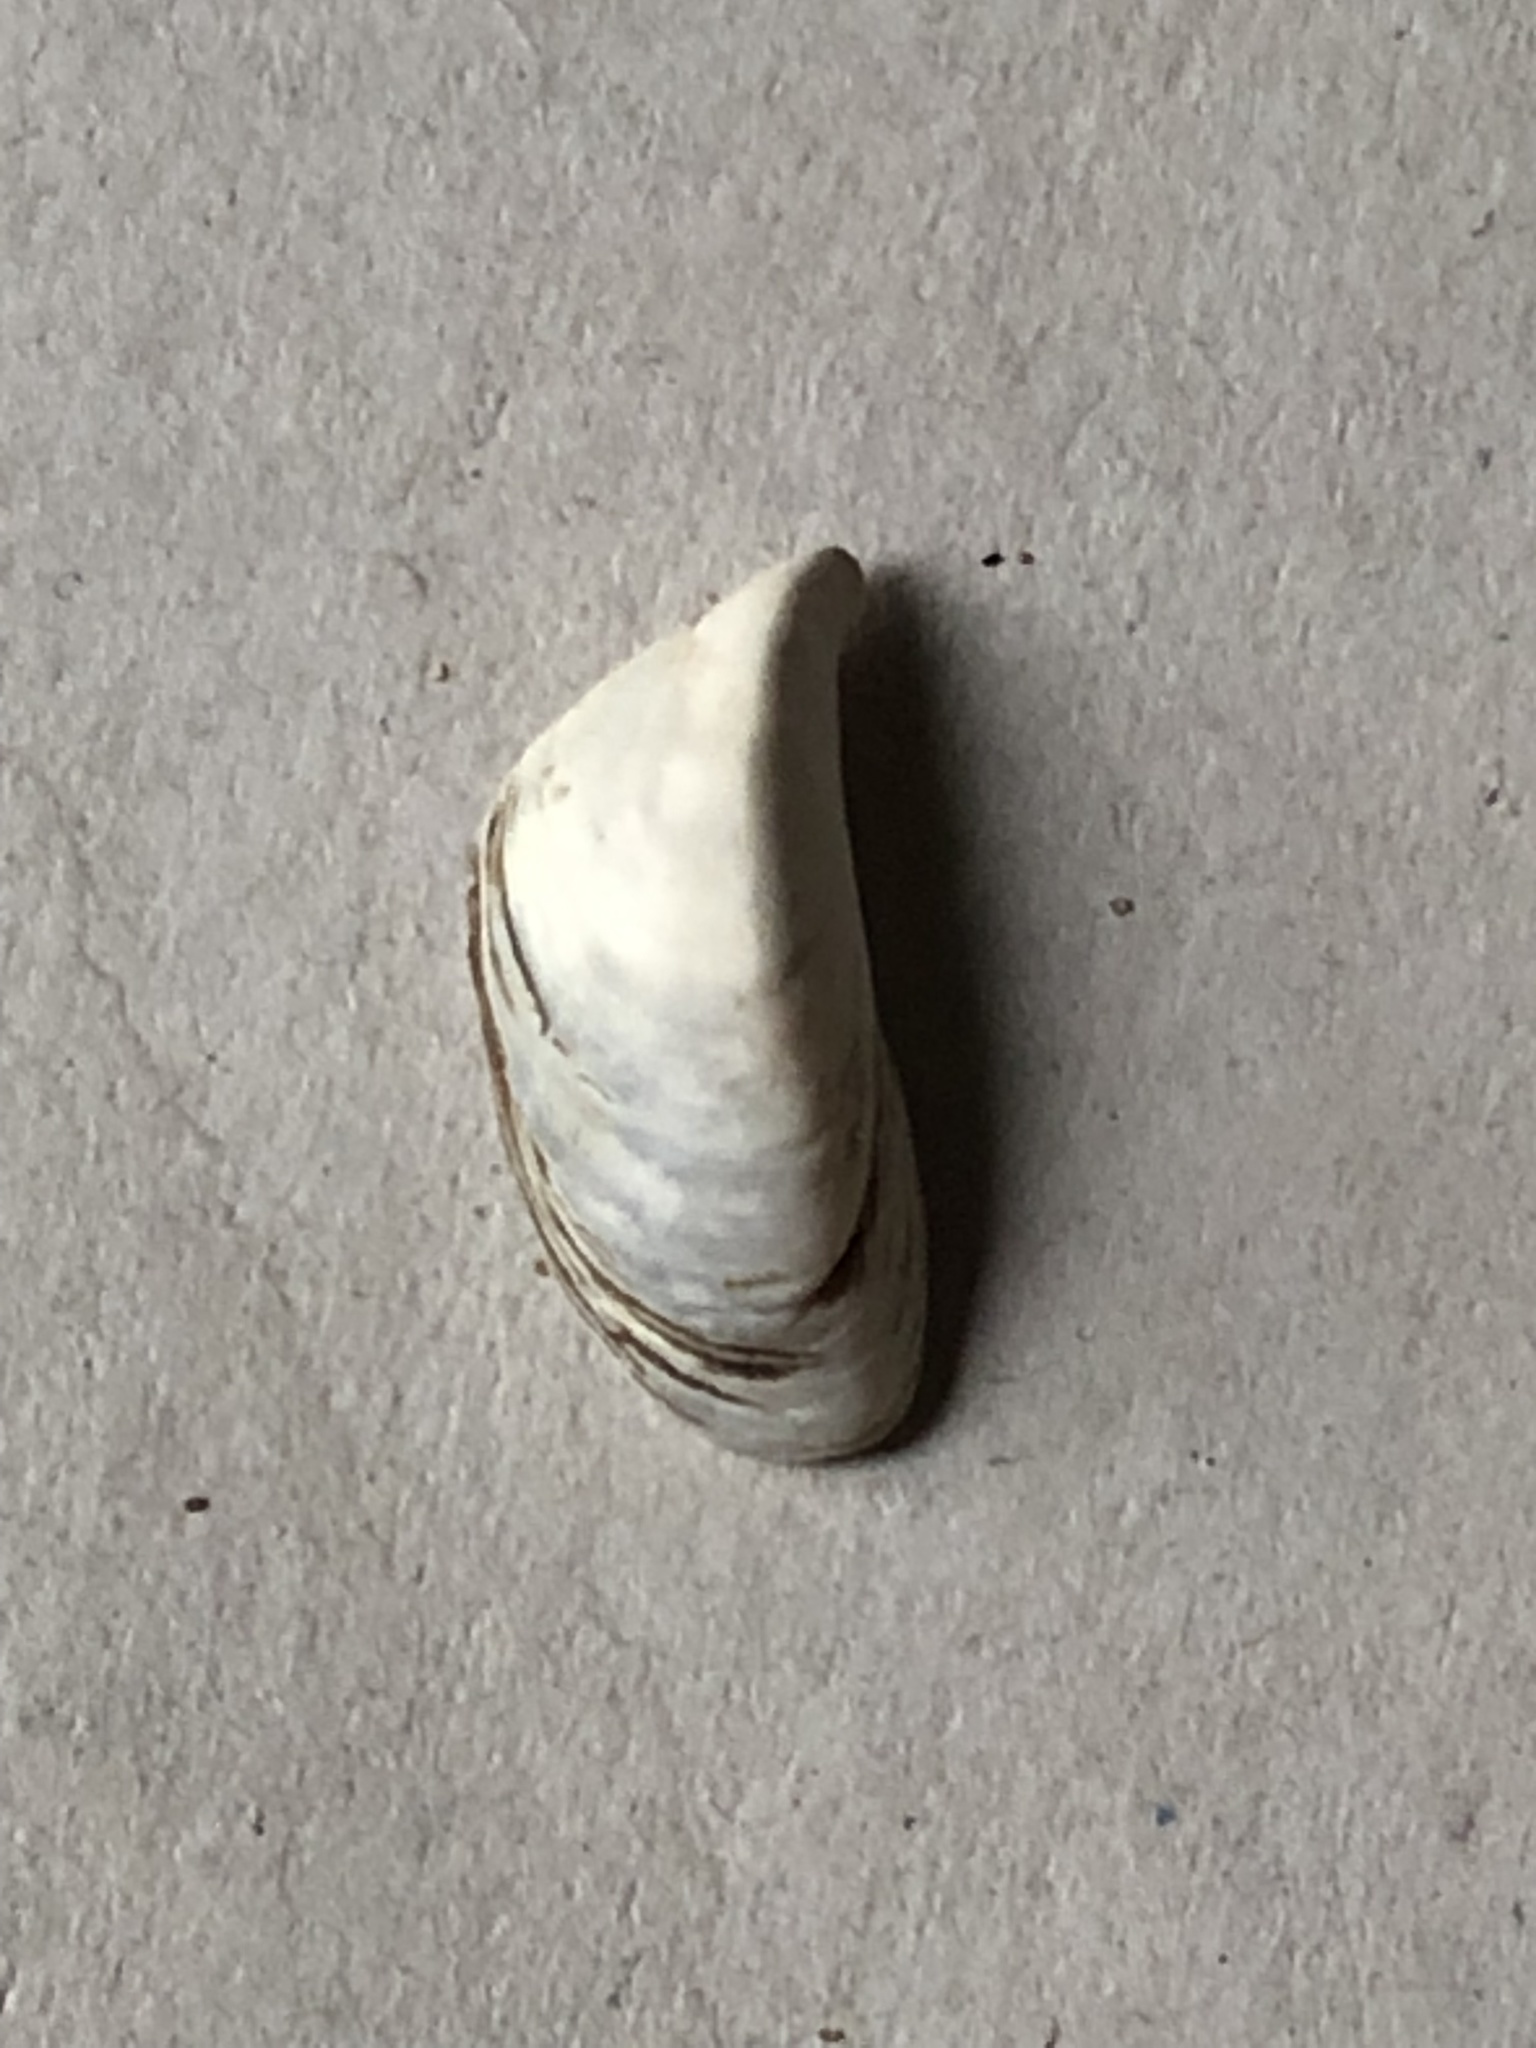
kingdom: Animalia
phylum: Mollusca
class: Bivalvia
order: Myida
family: Dreissenidae
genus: Dreissena
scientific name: Dreissena polymorpha
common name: Zebra mussel
